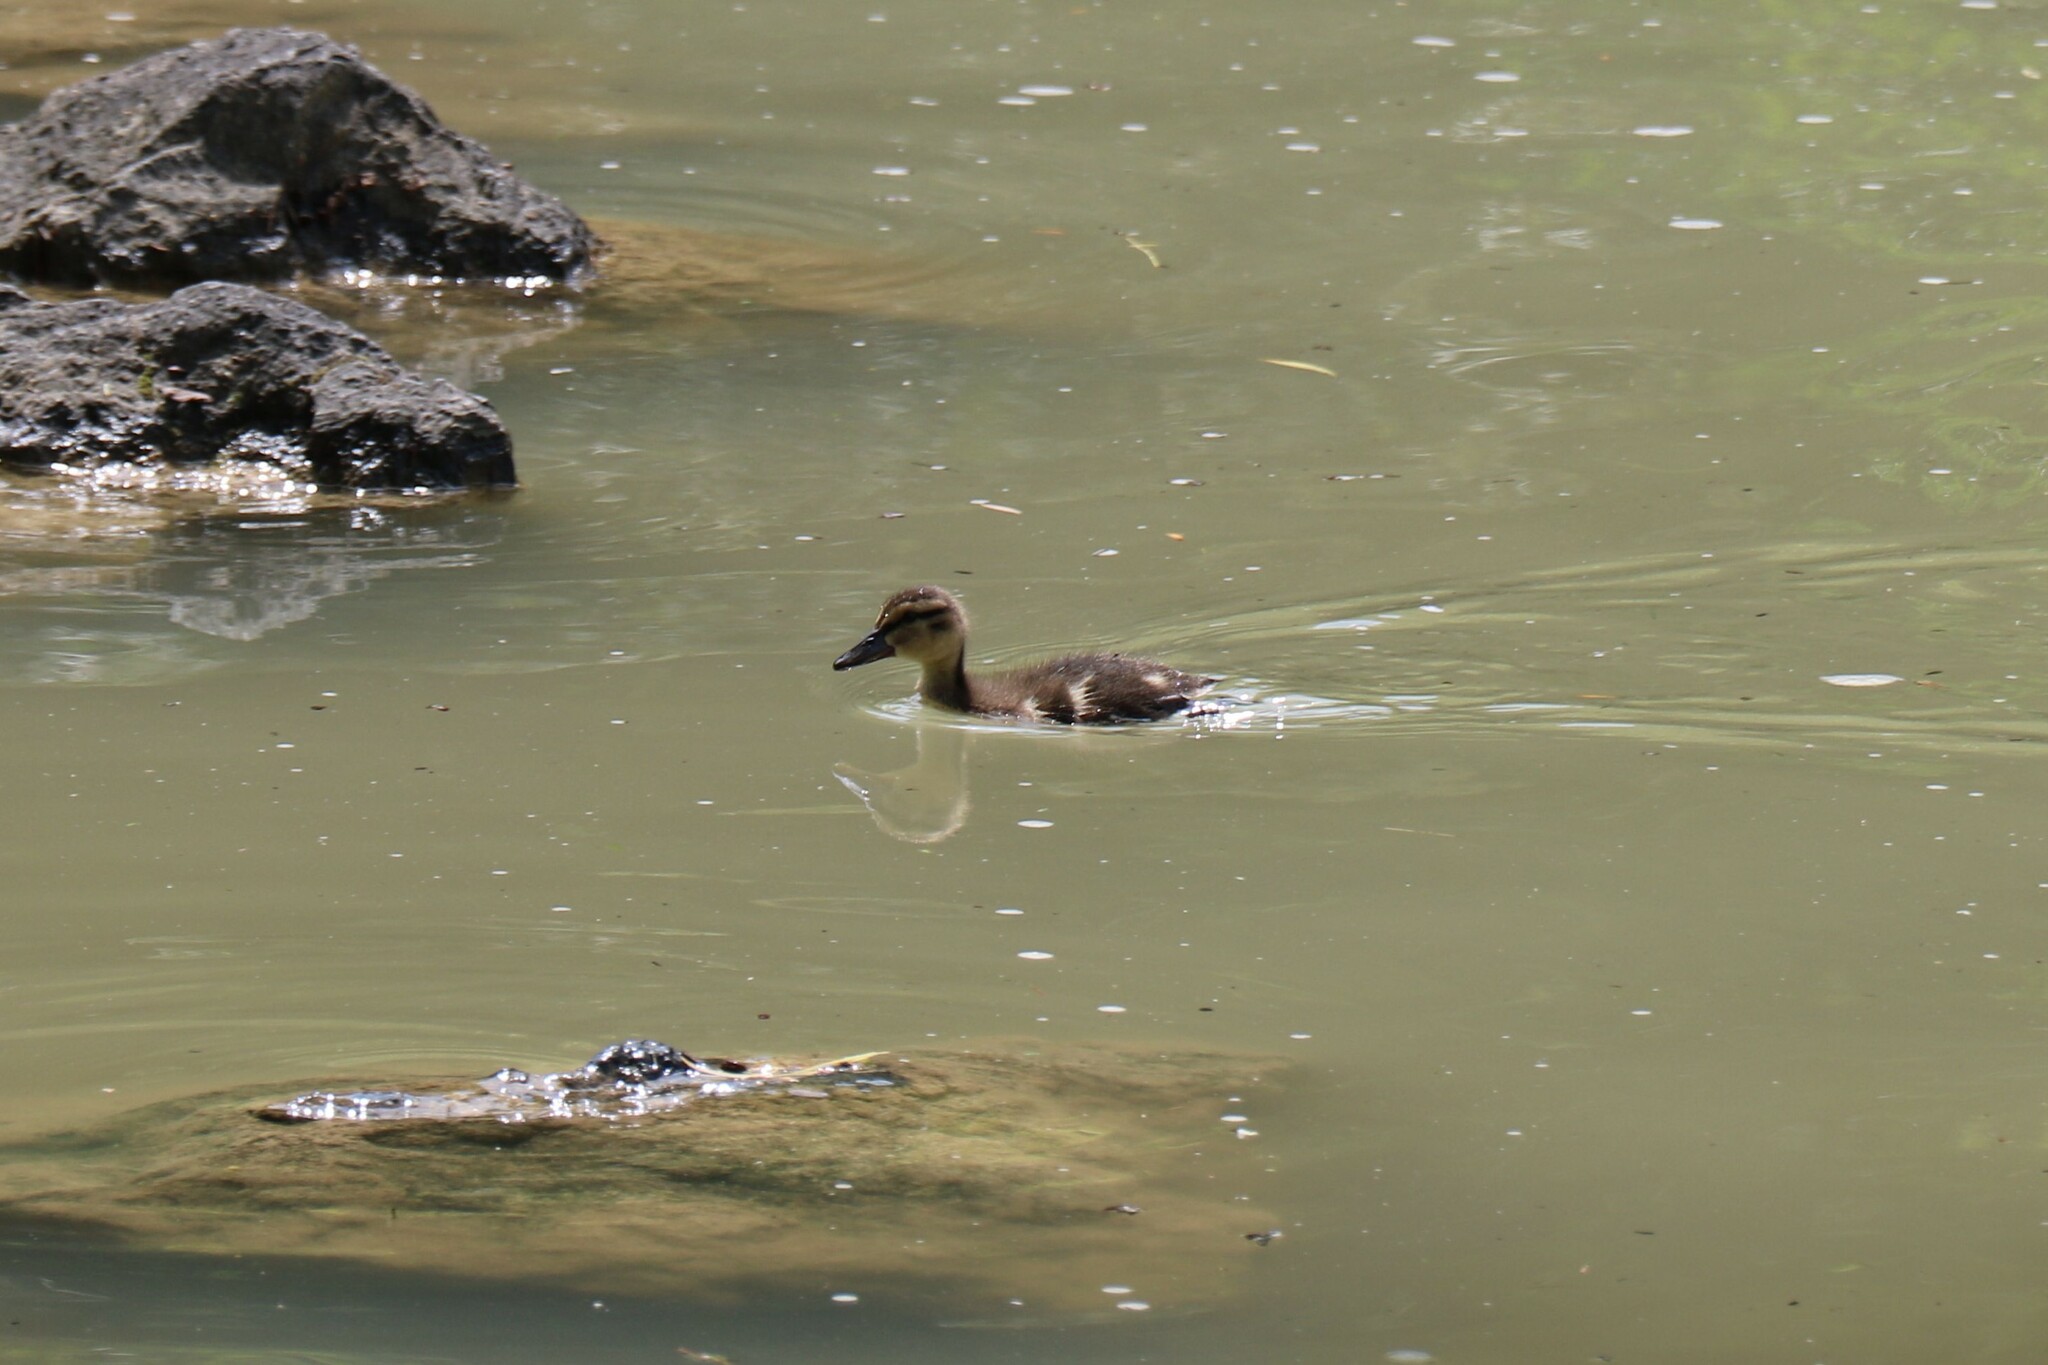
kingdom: Animalia
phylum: Chordata
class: Aves
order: Anseriformes
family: Anatidae
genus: Anas
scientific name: Anas platyrhynchos
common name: Mallard
